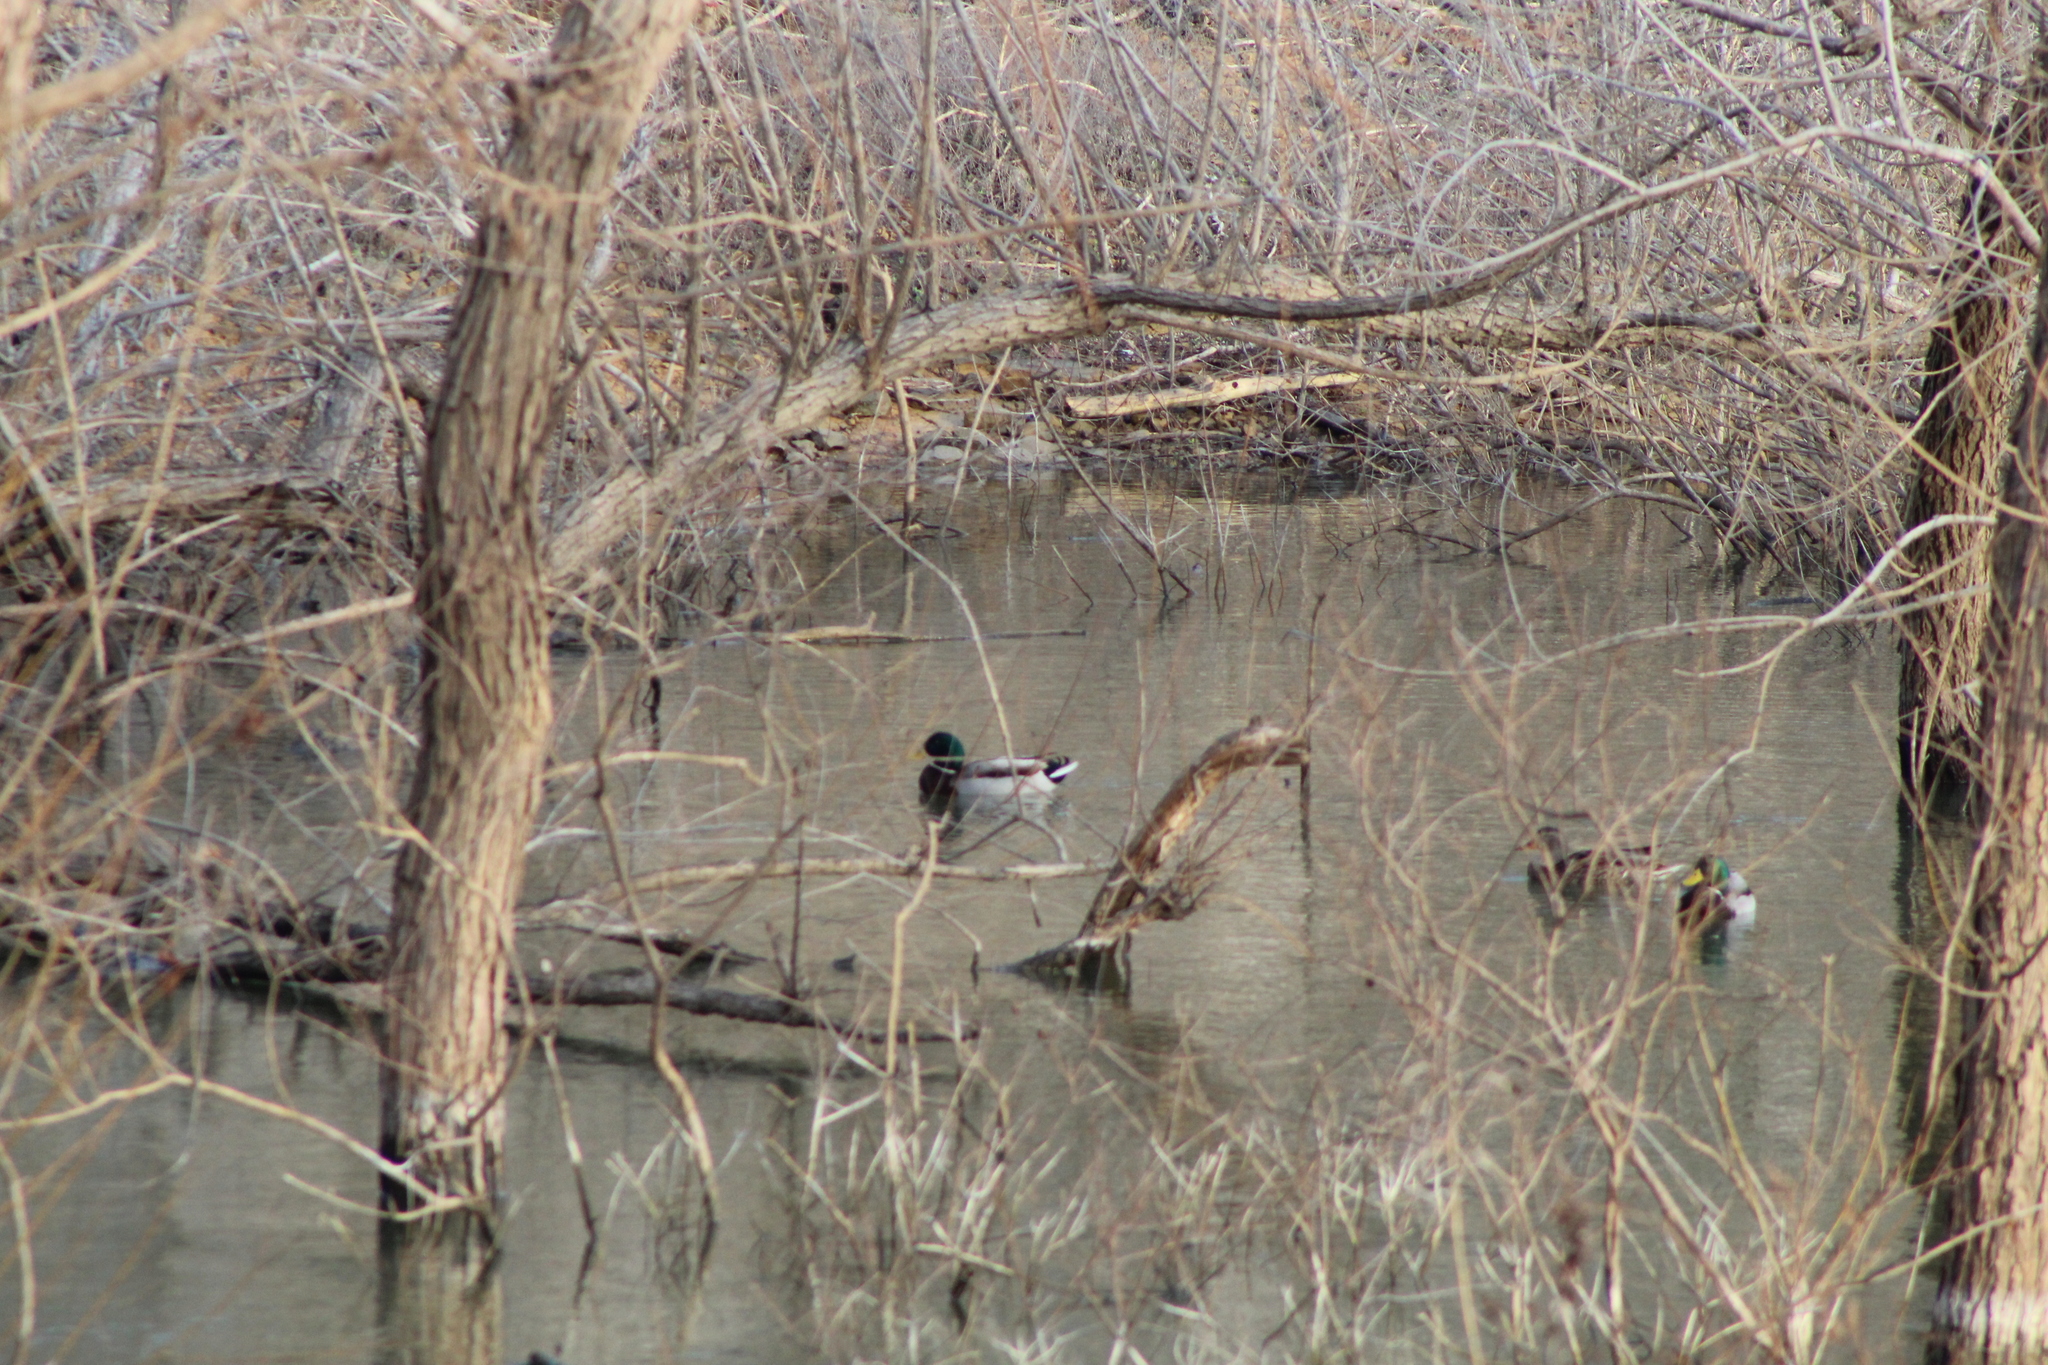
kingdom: Animalia
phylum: Chordata
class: Aves
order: Anseriformes
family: Anatidae
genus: Anas
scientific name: Anas platyrhynchos
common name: Mallard
